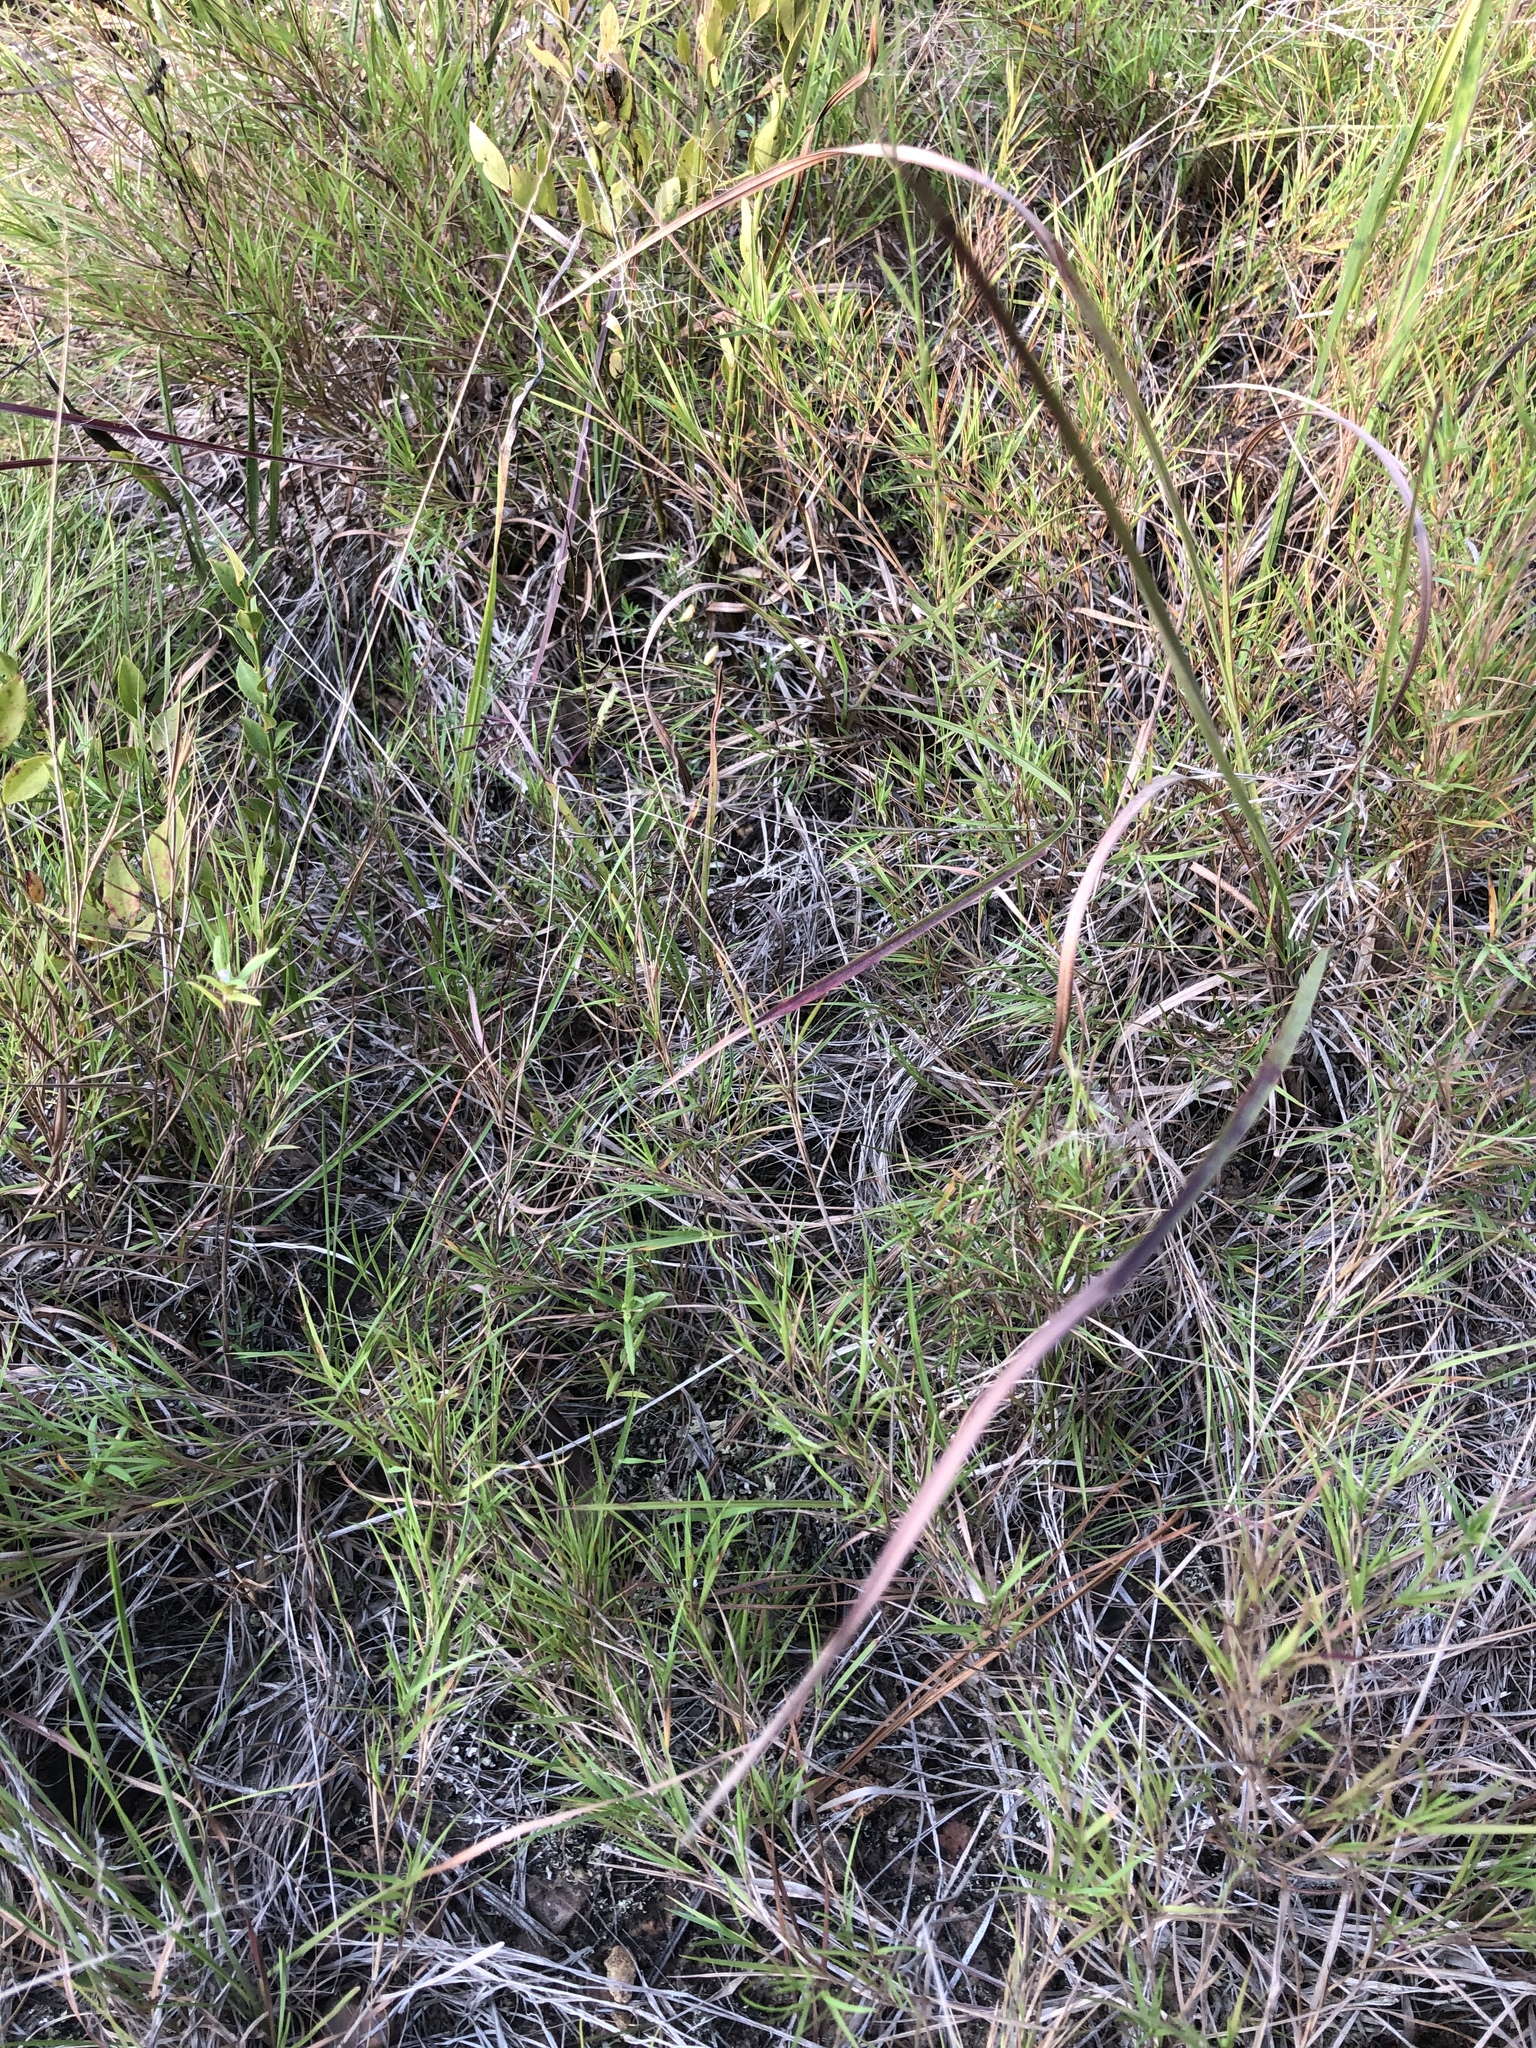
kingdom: Plantae
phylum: Tracheophyta
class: Liliopsida
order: Poales
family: Poaceae
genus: Dichanthelium
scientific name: Dichanthelium aciculare
